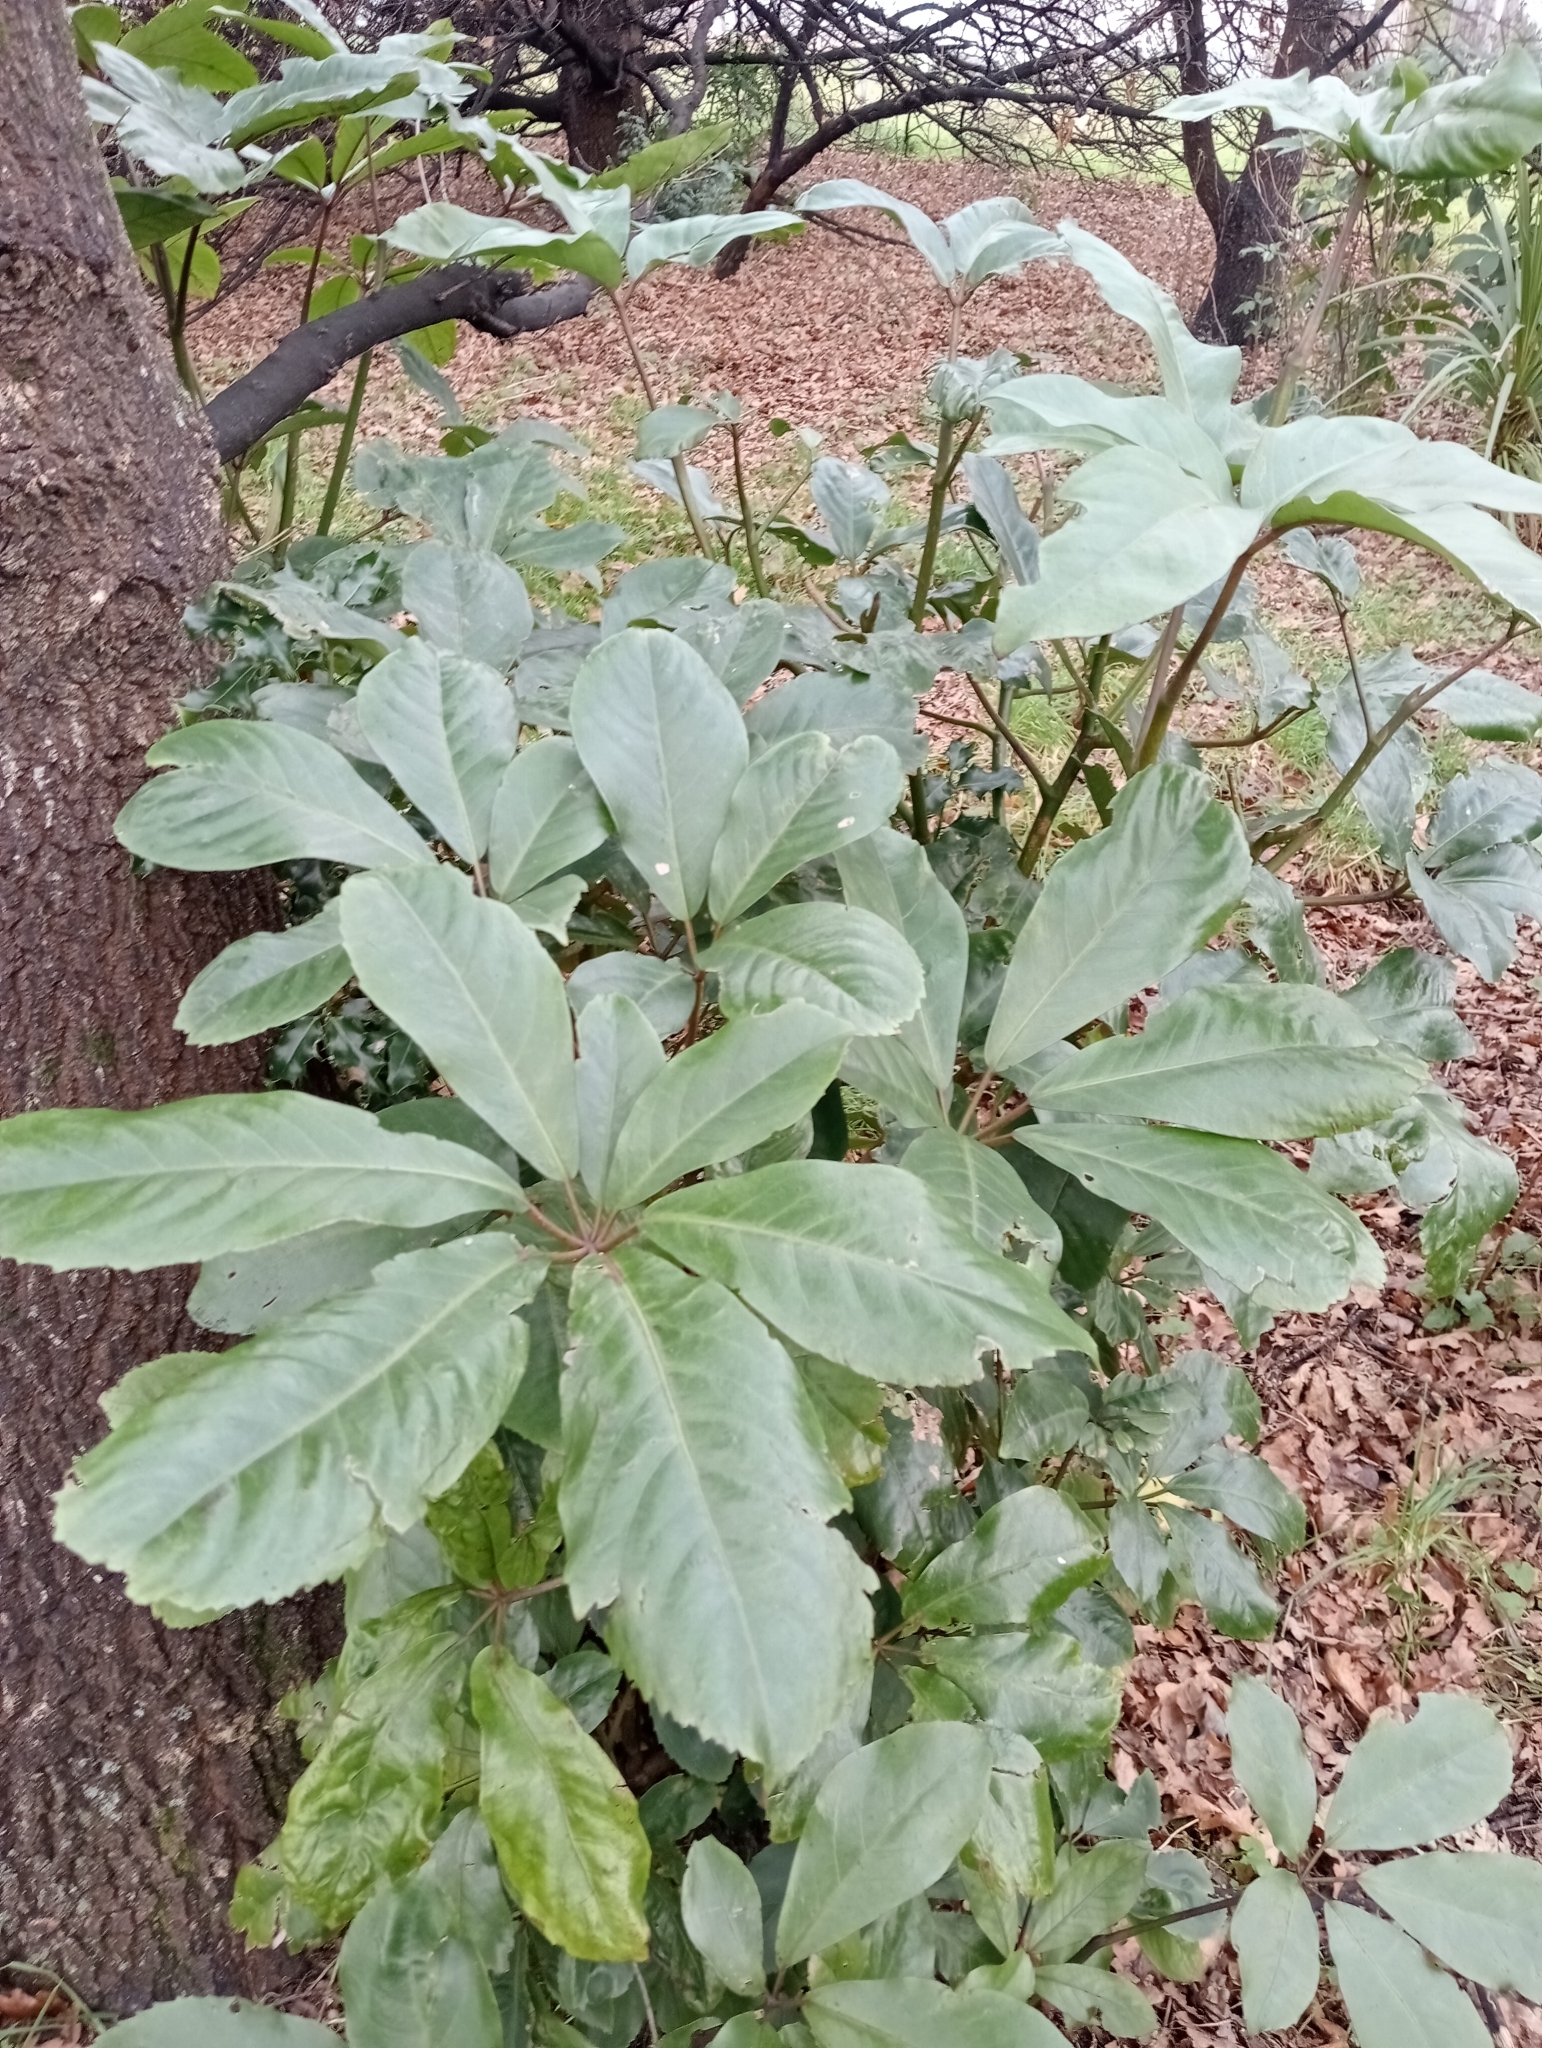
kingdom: Plantae
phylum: Tracheophyta
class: Magnoliopsida
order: Apiales
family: Araliaceae
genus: Neopanax
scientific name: Neopanax laetus
